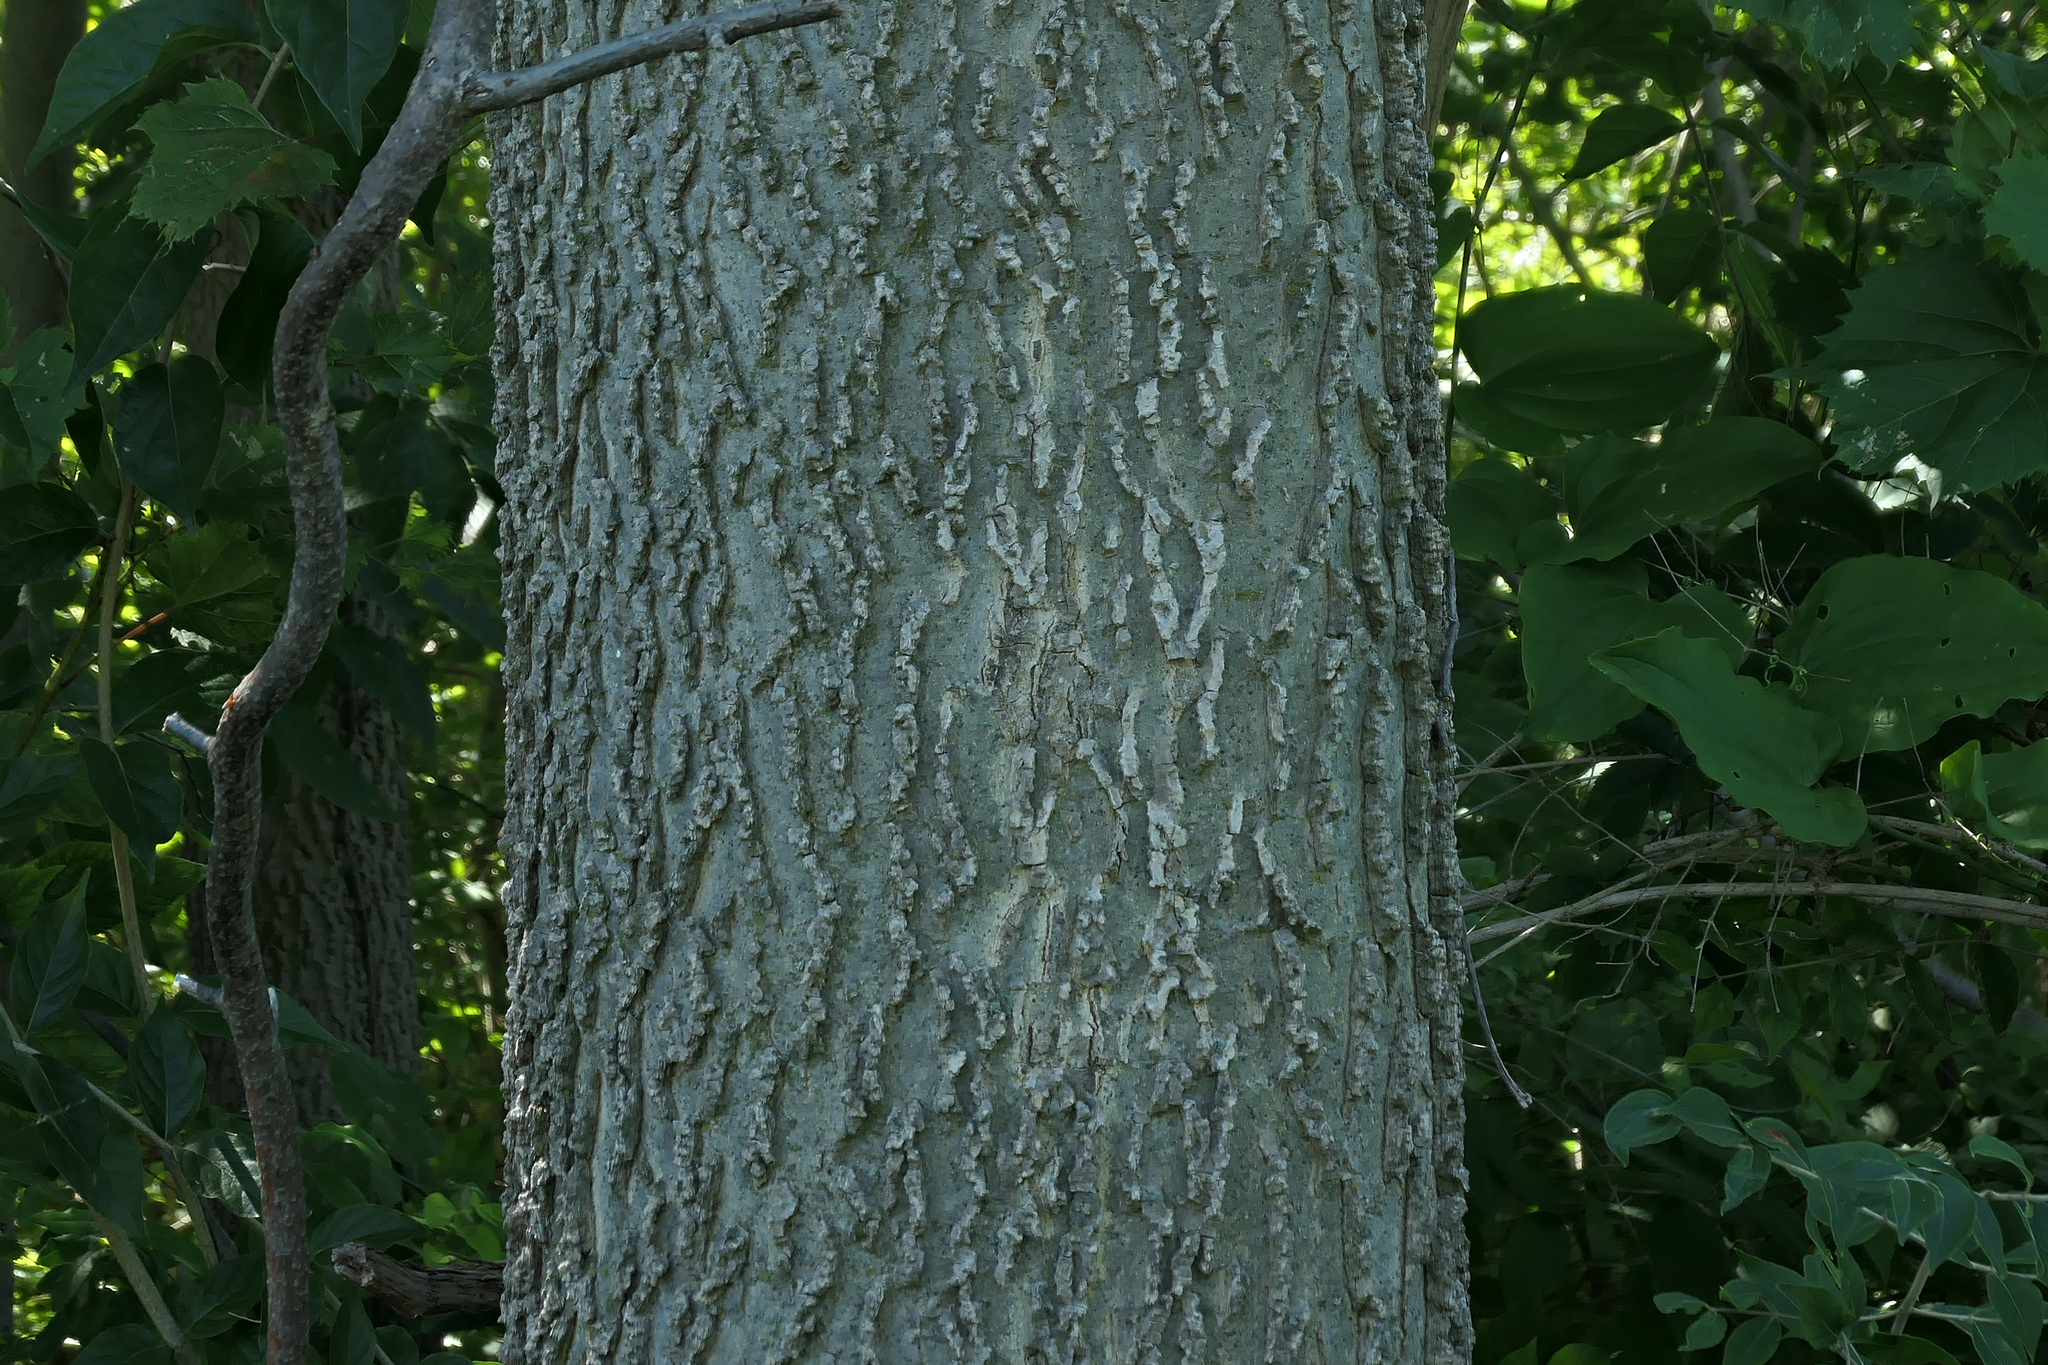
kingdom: Plantae
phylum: Tracheophyta
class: Magnoliopsida
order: Rosales
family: Cannabaceae
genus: Celtis
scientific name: Celtis occidentalis
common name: Common hackberry
